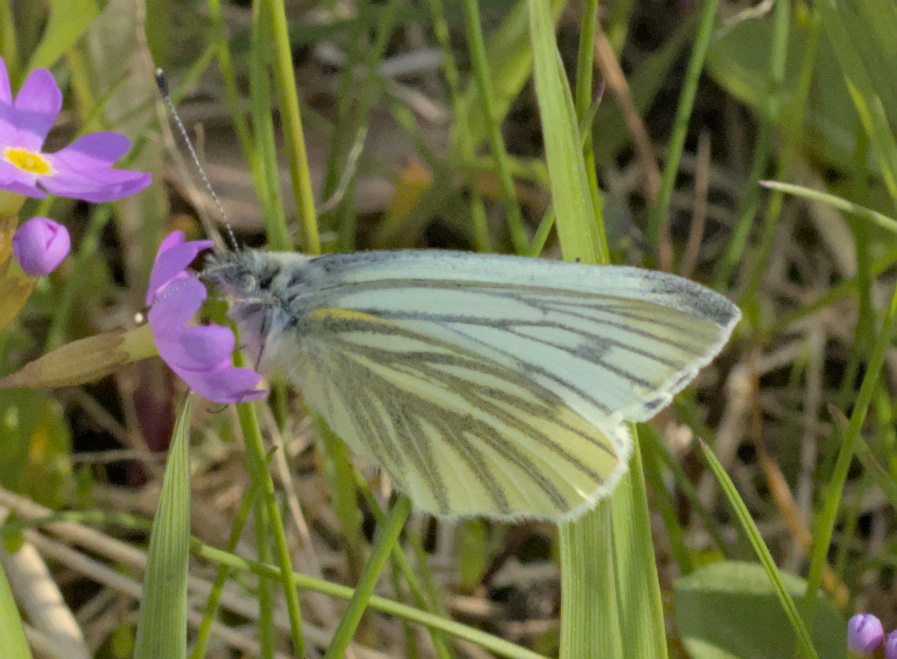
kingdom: Animalia
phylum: Arthropoda
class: Insecta
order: Lepidoptera
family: Pieridae
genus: Pieris
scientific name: Pieris napi
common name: Green-veined white
